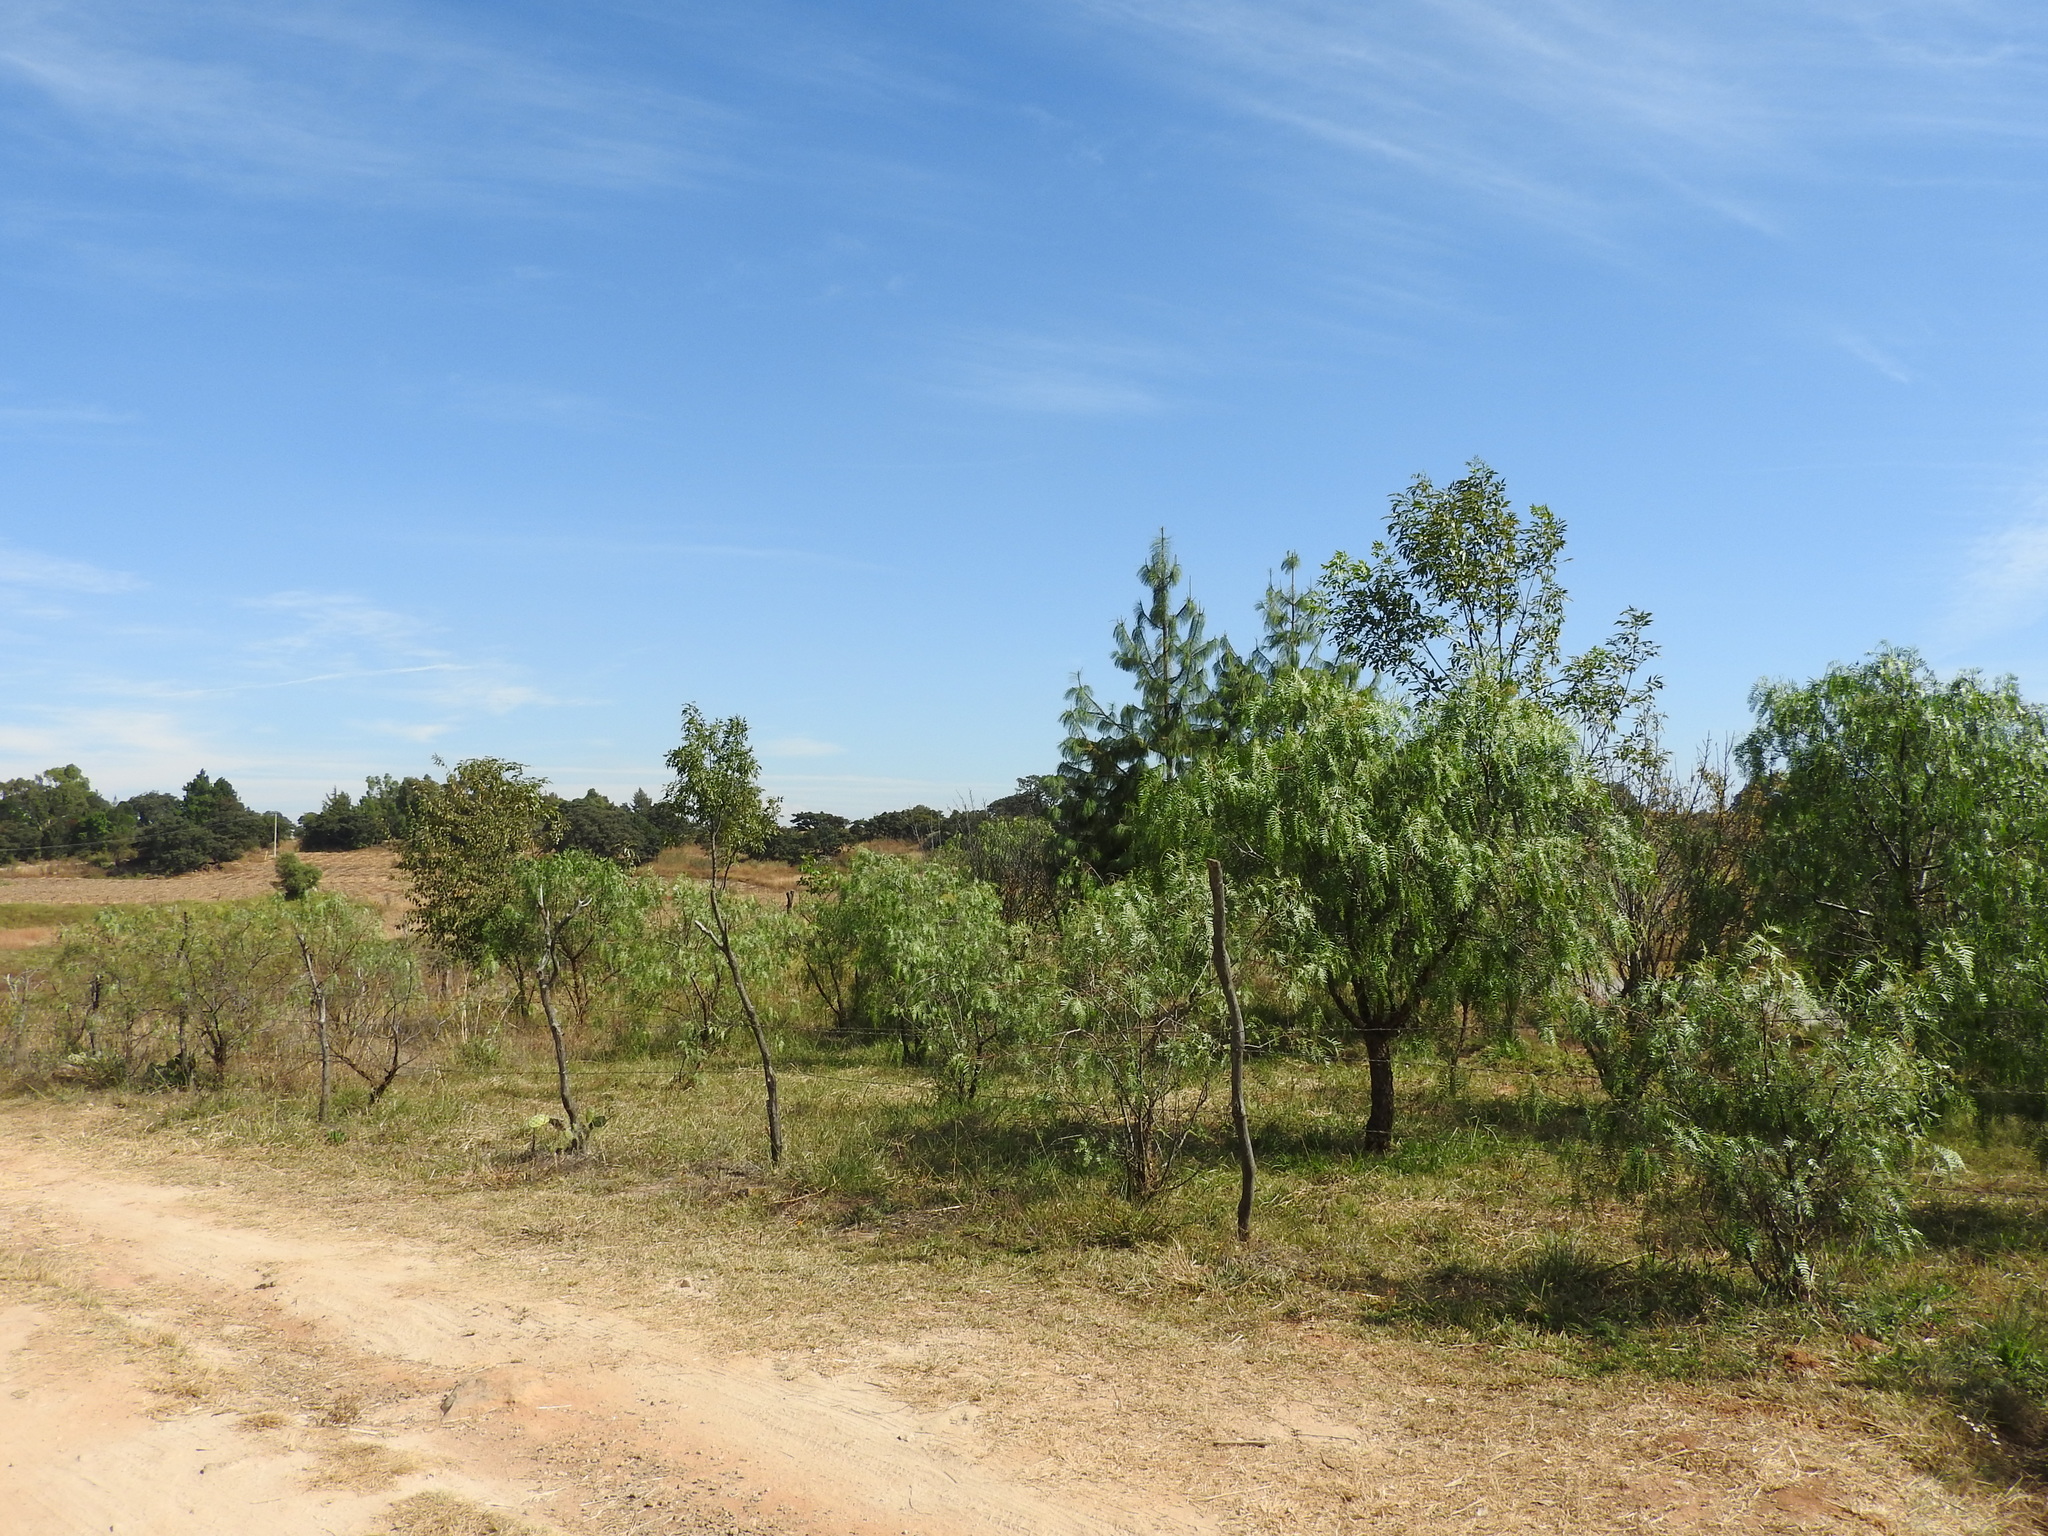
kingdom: Plantae
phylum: Tracheophyta
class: Magnoliopsida
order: Sapindales
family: Anacardiaceae
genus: Schinus
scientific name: Schinus molle
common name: Peruvian peppertree
